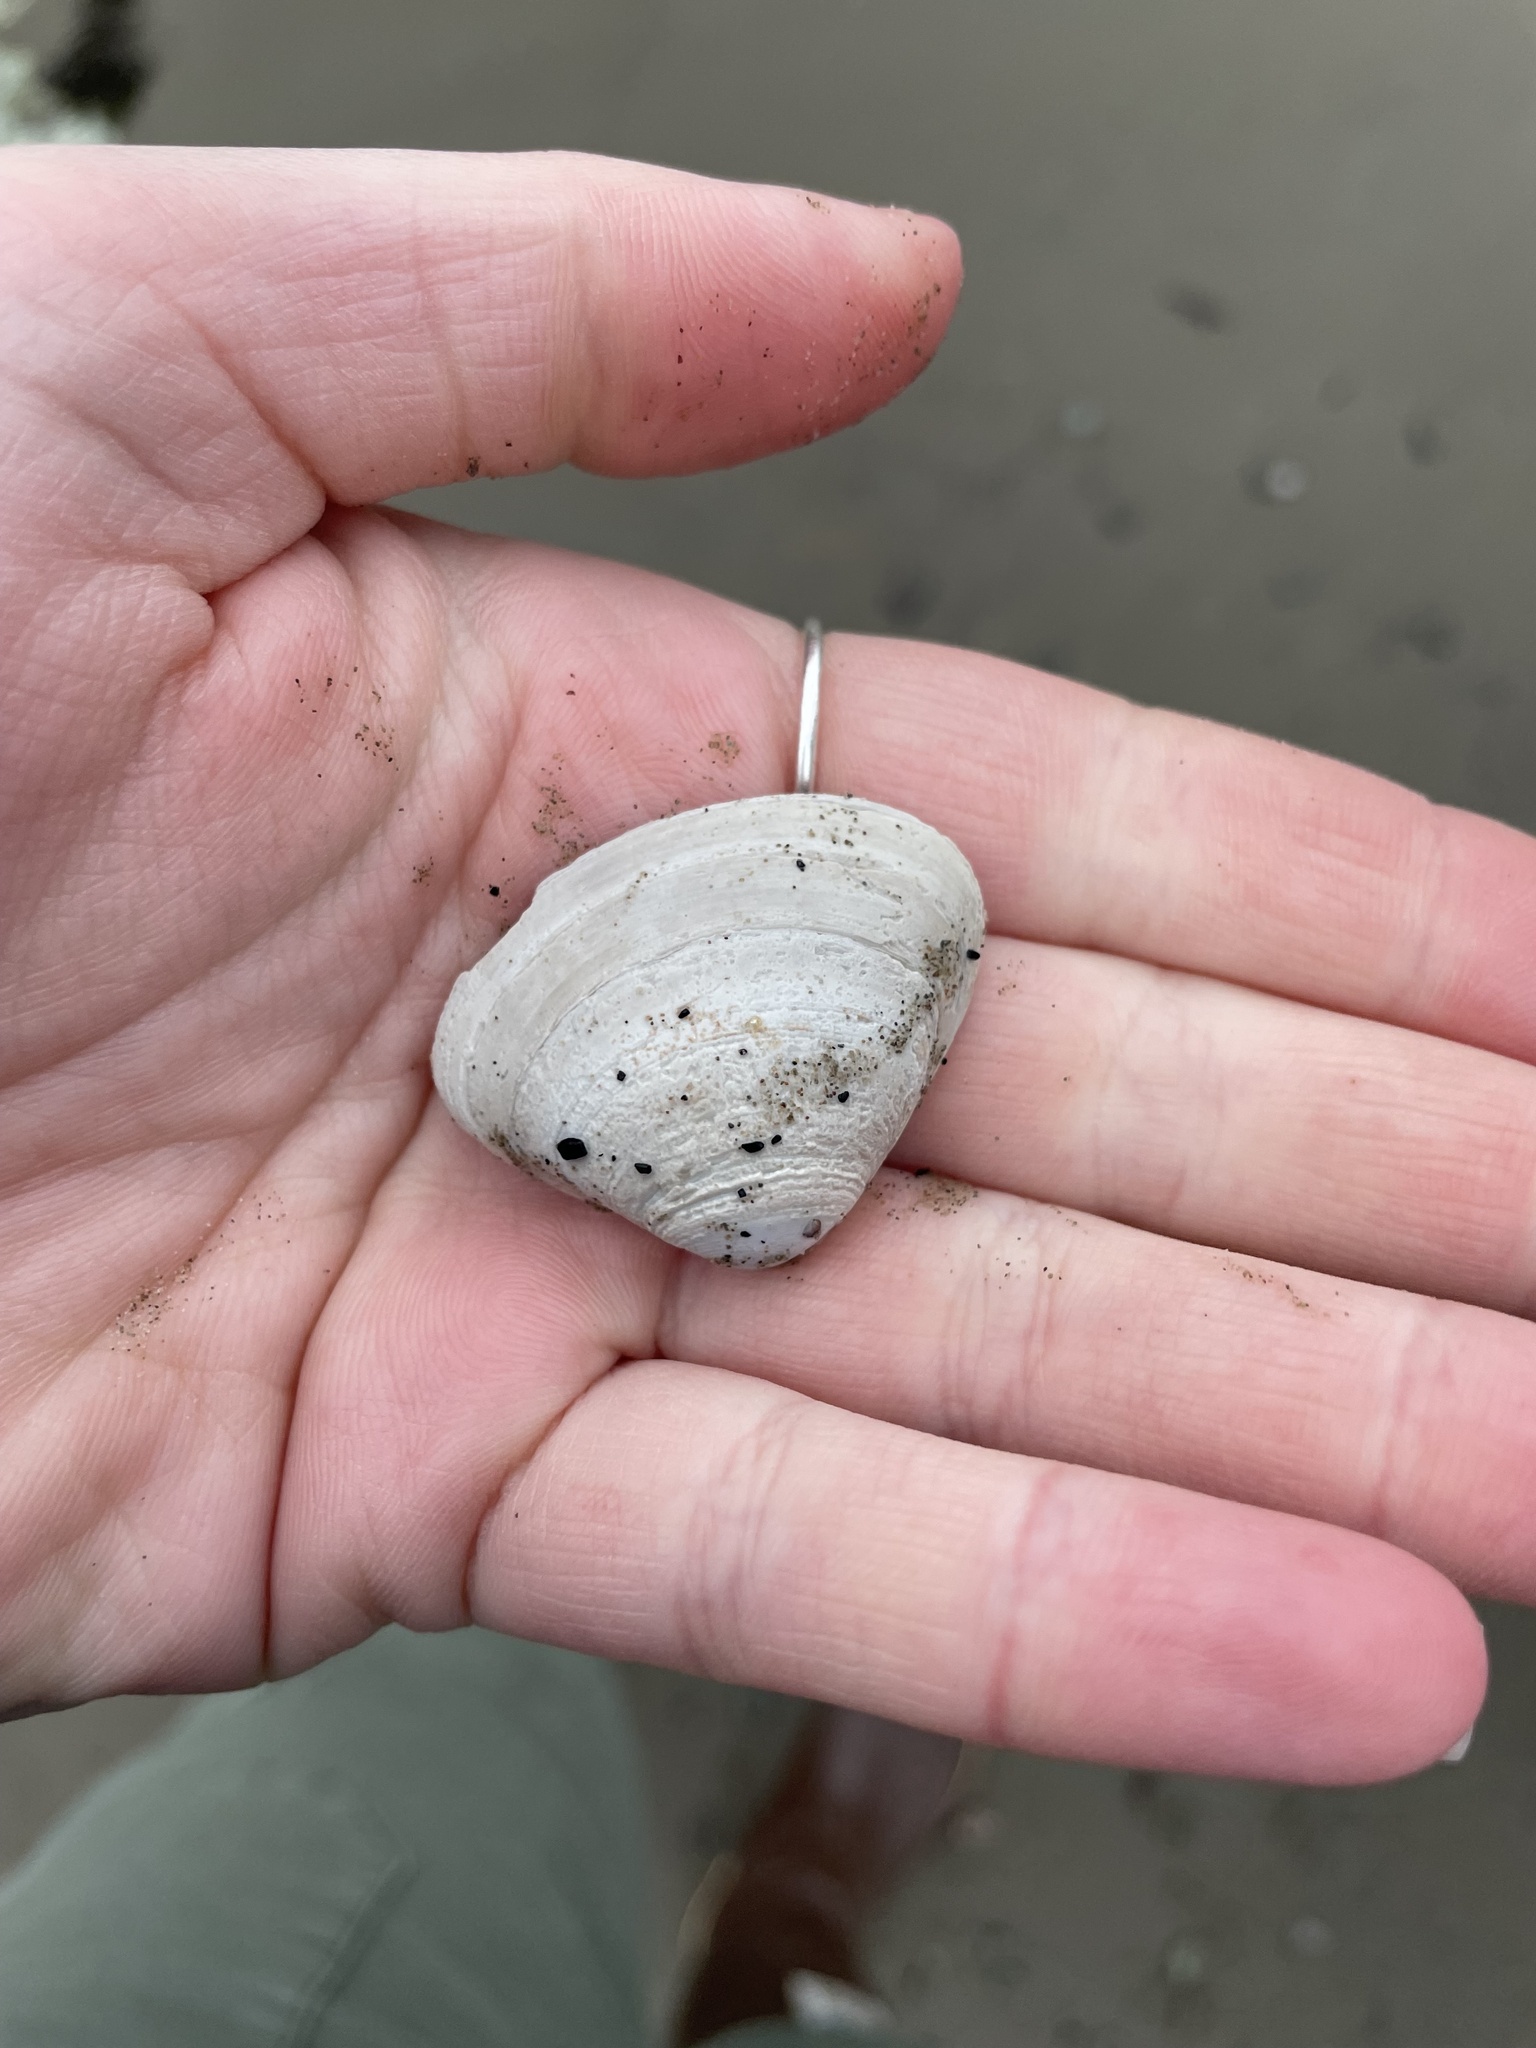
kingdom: Animalia
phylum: Mollusca
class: Bivalvia
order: Venerida
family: Mactridae
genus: Spisula
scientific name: Spisula solidissima
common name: Atlantic surf clam
